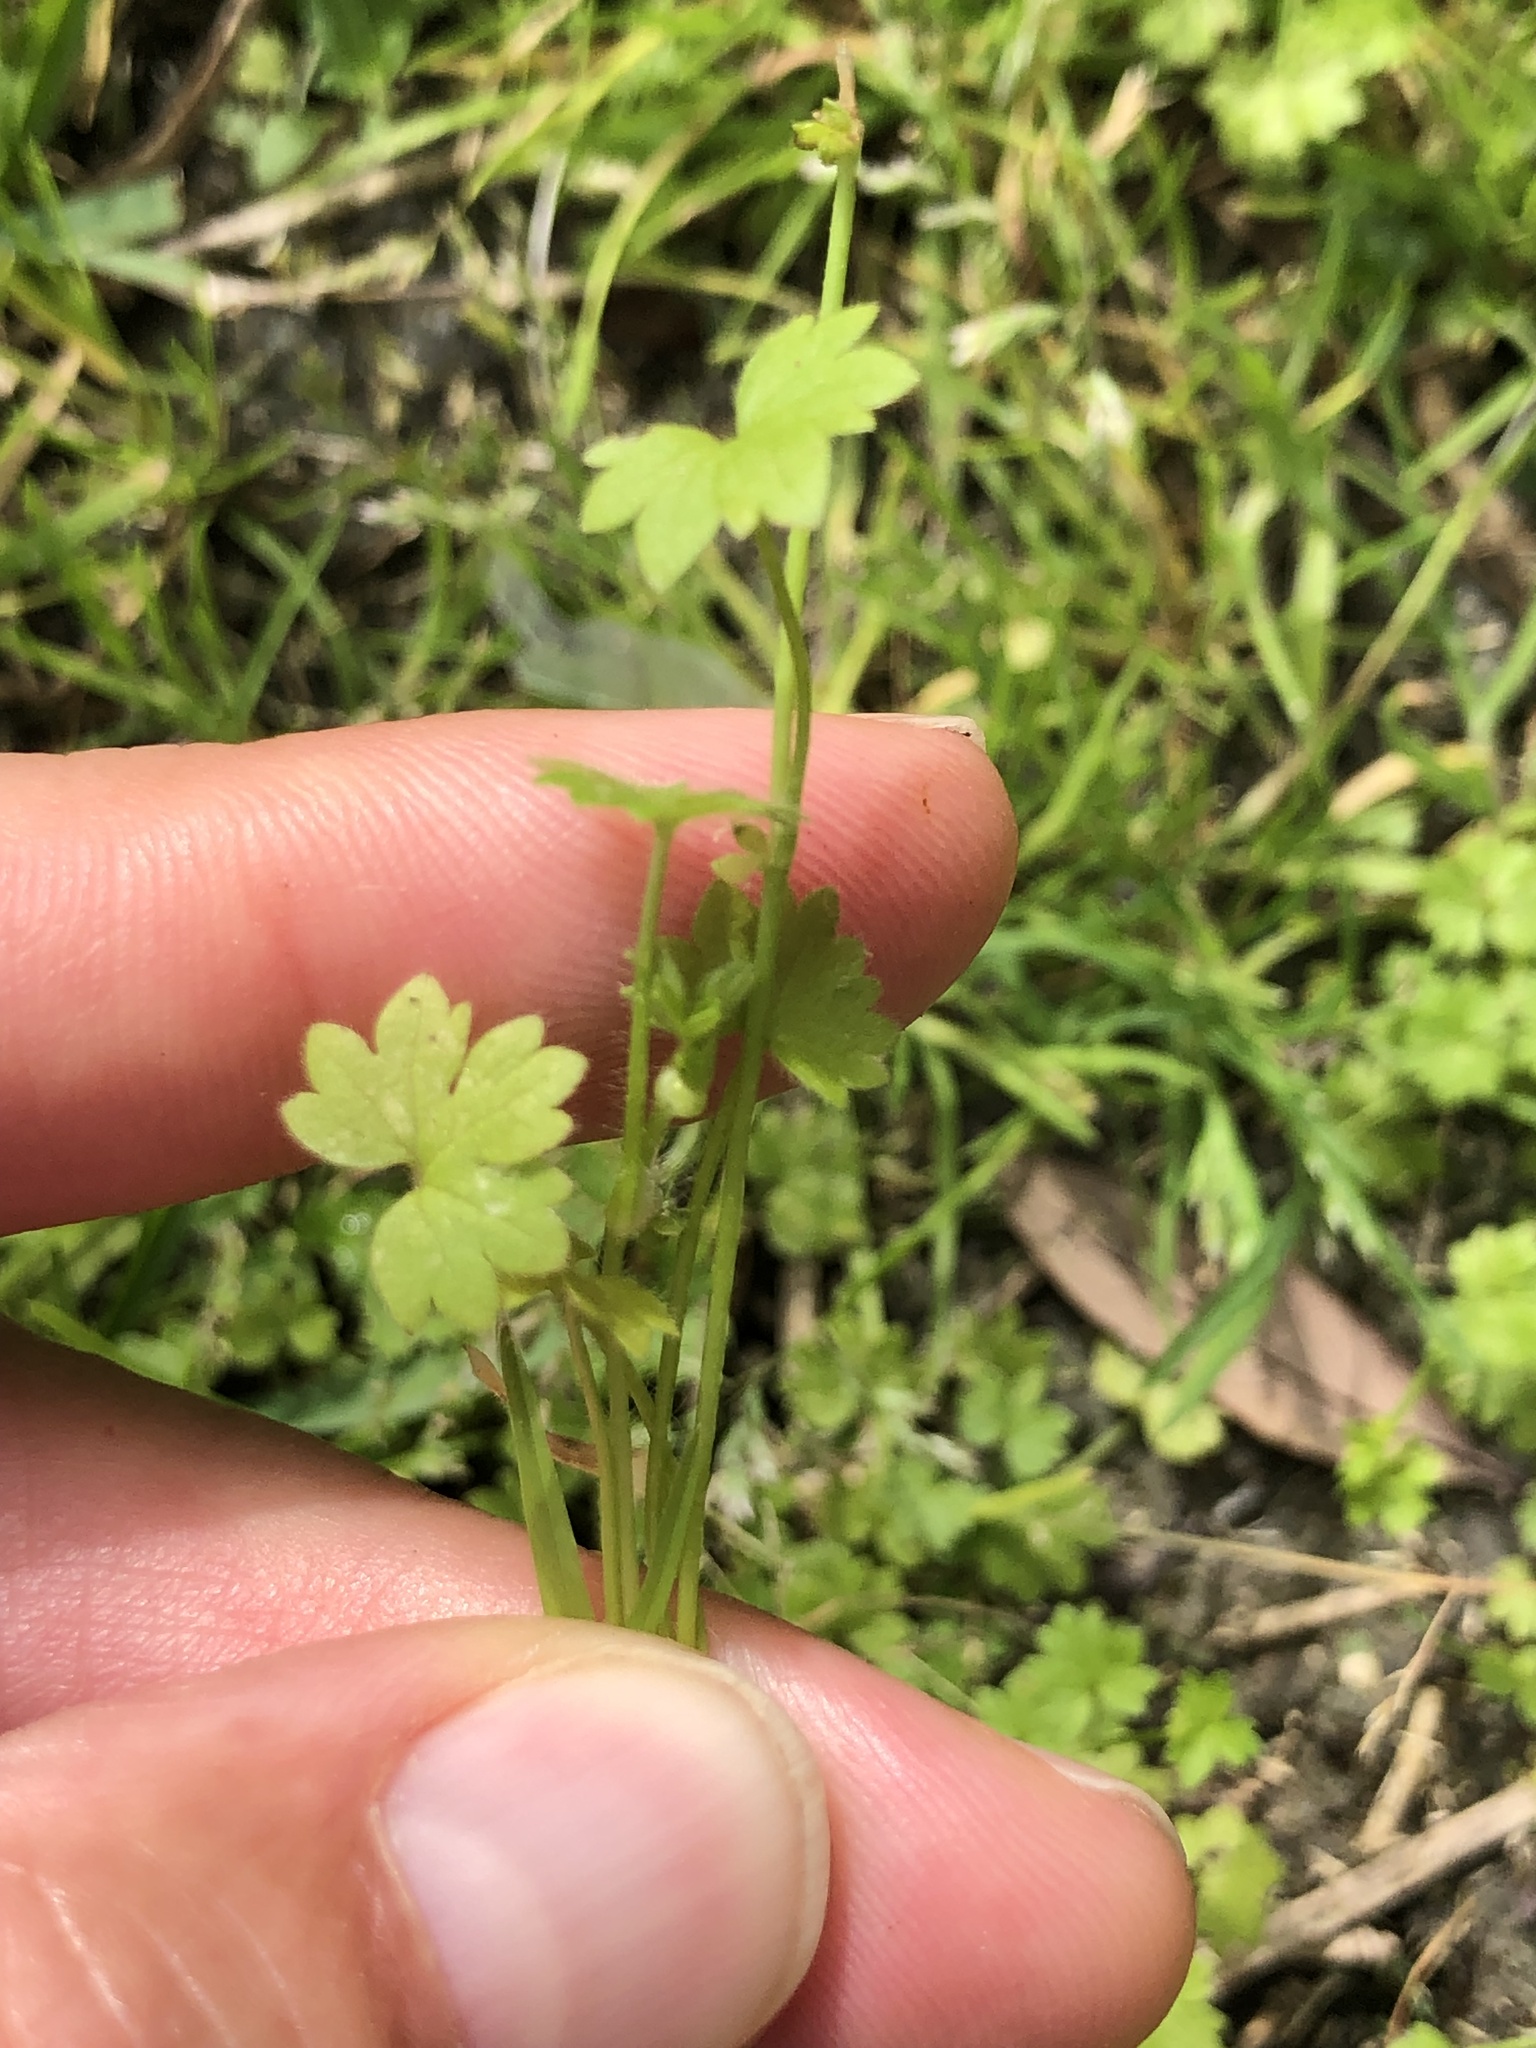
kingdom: Plantae
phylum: Tracheophyta
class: Magnoliopsida
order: Ranunculales
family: Ranunculaceae
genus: Ranunculus
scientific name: Ranunculus platensis
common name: Prairie buttercup
